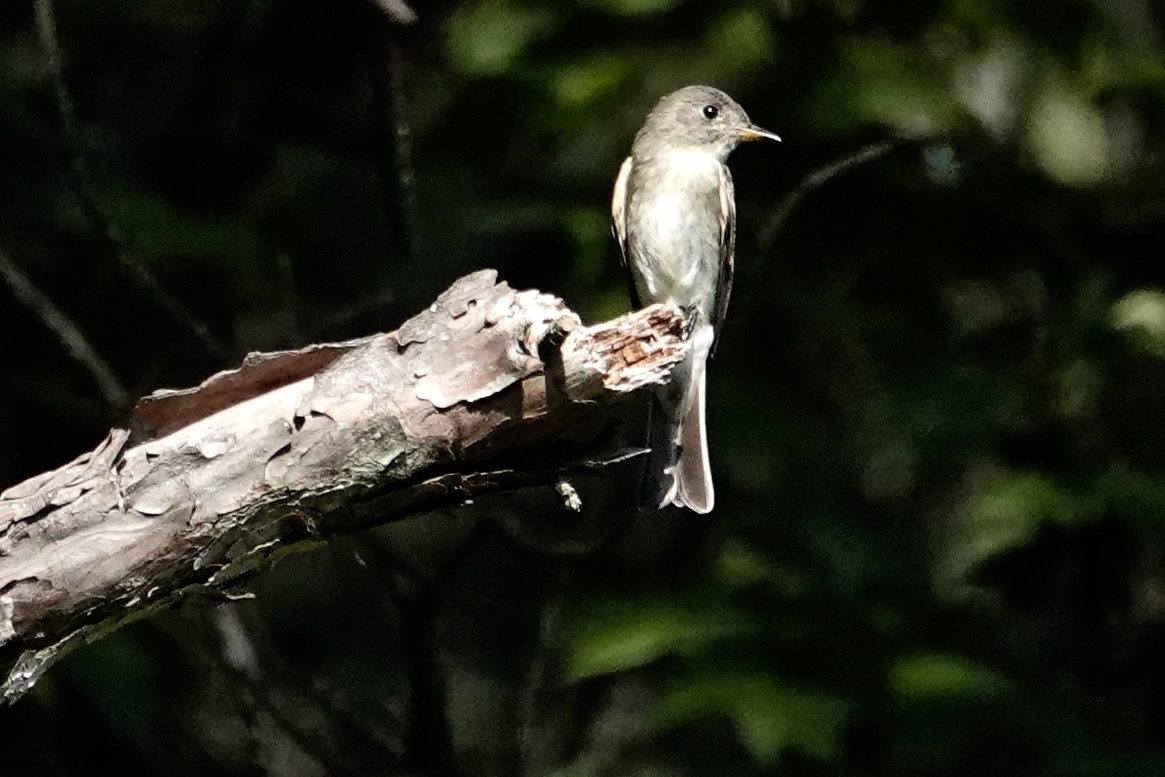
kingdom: Animalia
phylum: Chordata
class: Aves
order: Passeriformes
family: Tyrannidae
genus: Contopus
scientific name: Contopus virens
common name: Eastern wood-pewee
